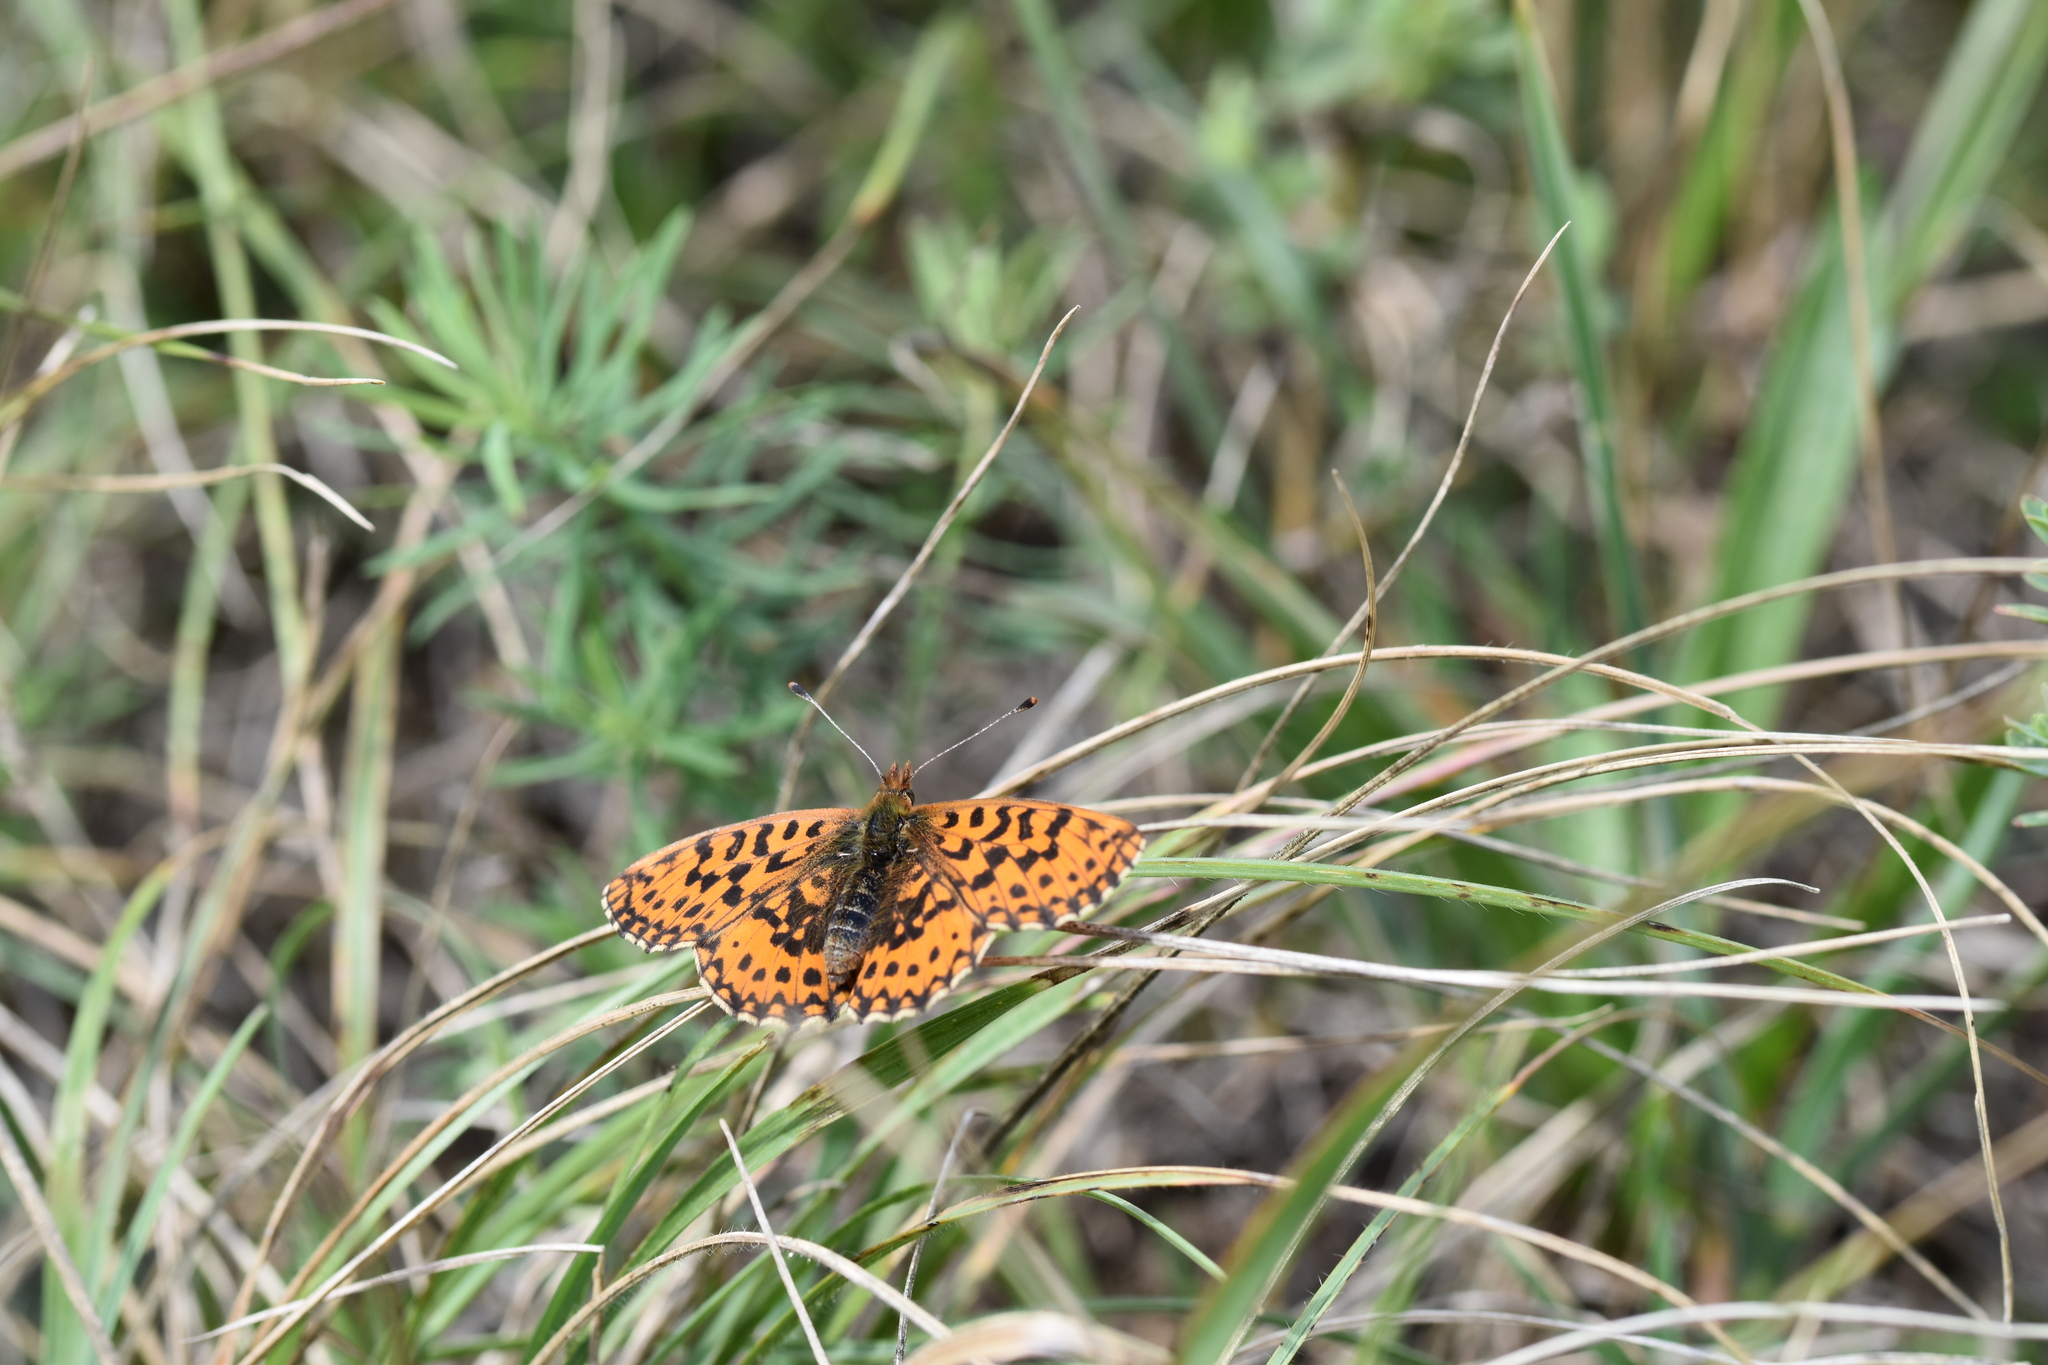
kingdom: Animalia
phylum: Arthropoda
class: Insecta
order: Lepidoptera
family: Nymphalidae
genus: Boloria
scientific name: Boloria dia
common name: Weaver's fritillary
